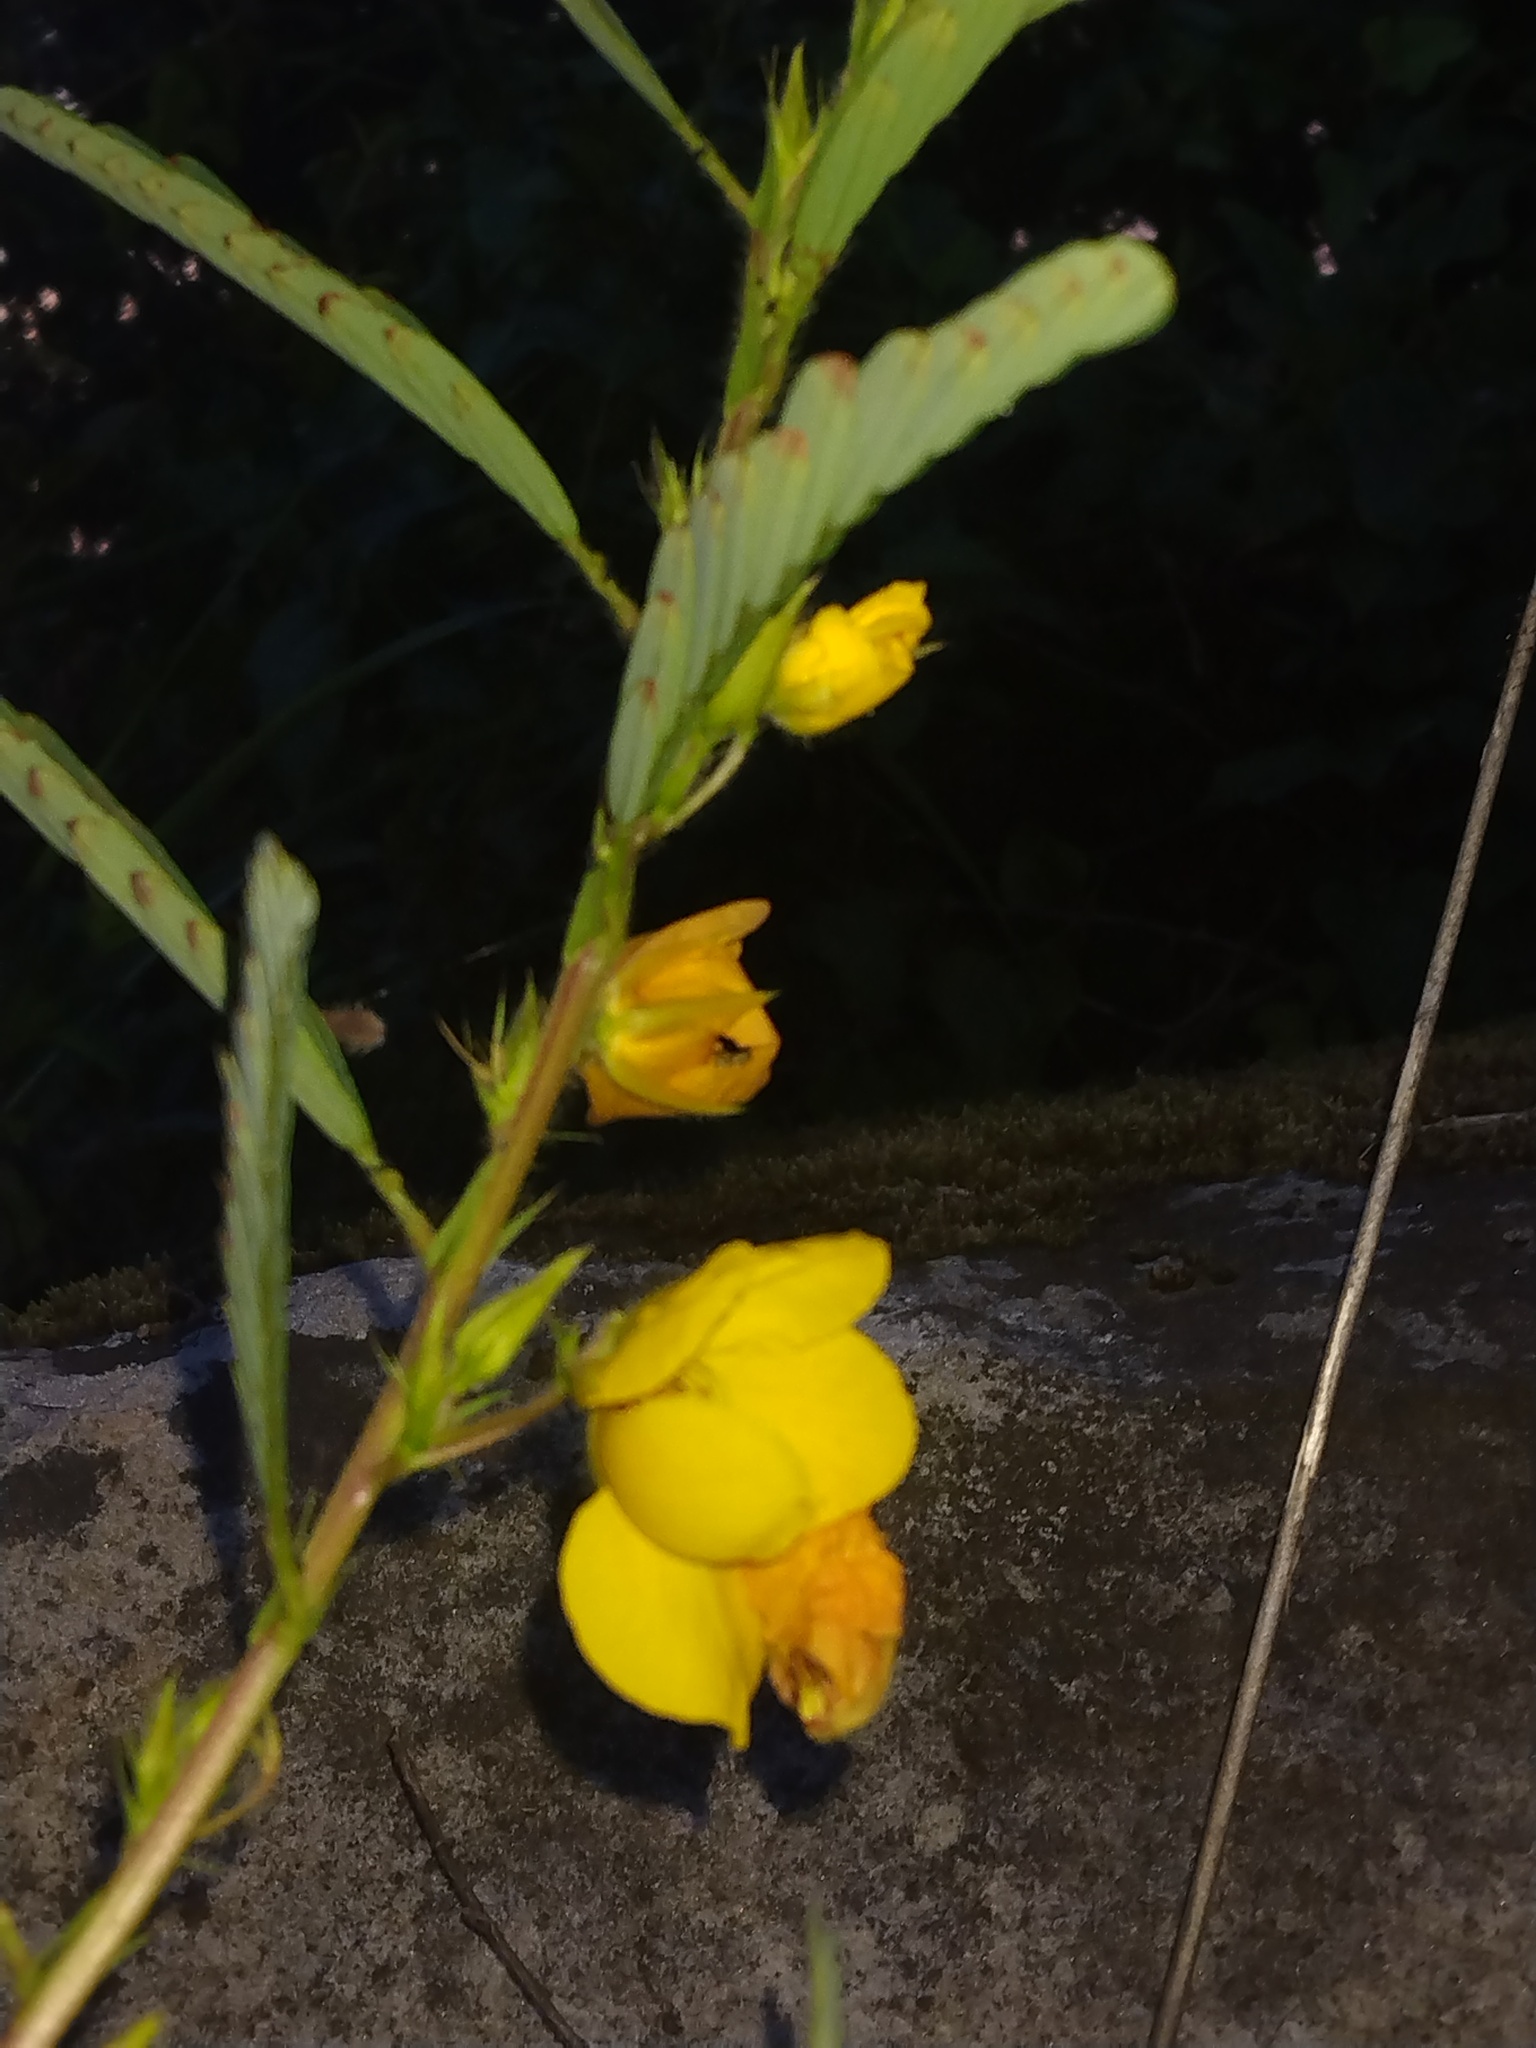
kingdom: Plantae
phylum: Tracheophyta
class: Magnoliopsida
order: Fabales
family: Fabaceae
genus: Chamaecrista
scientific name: Chamaecrista fasciculata
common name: Golden cassia
